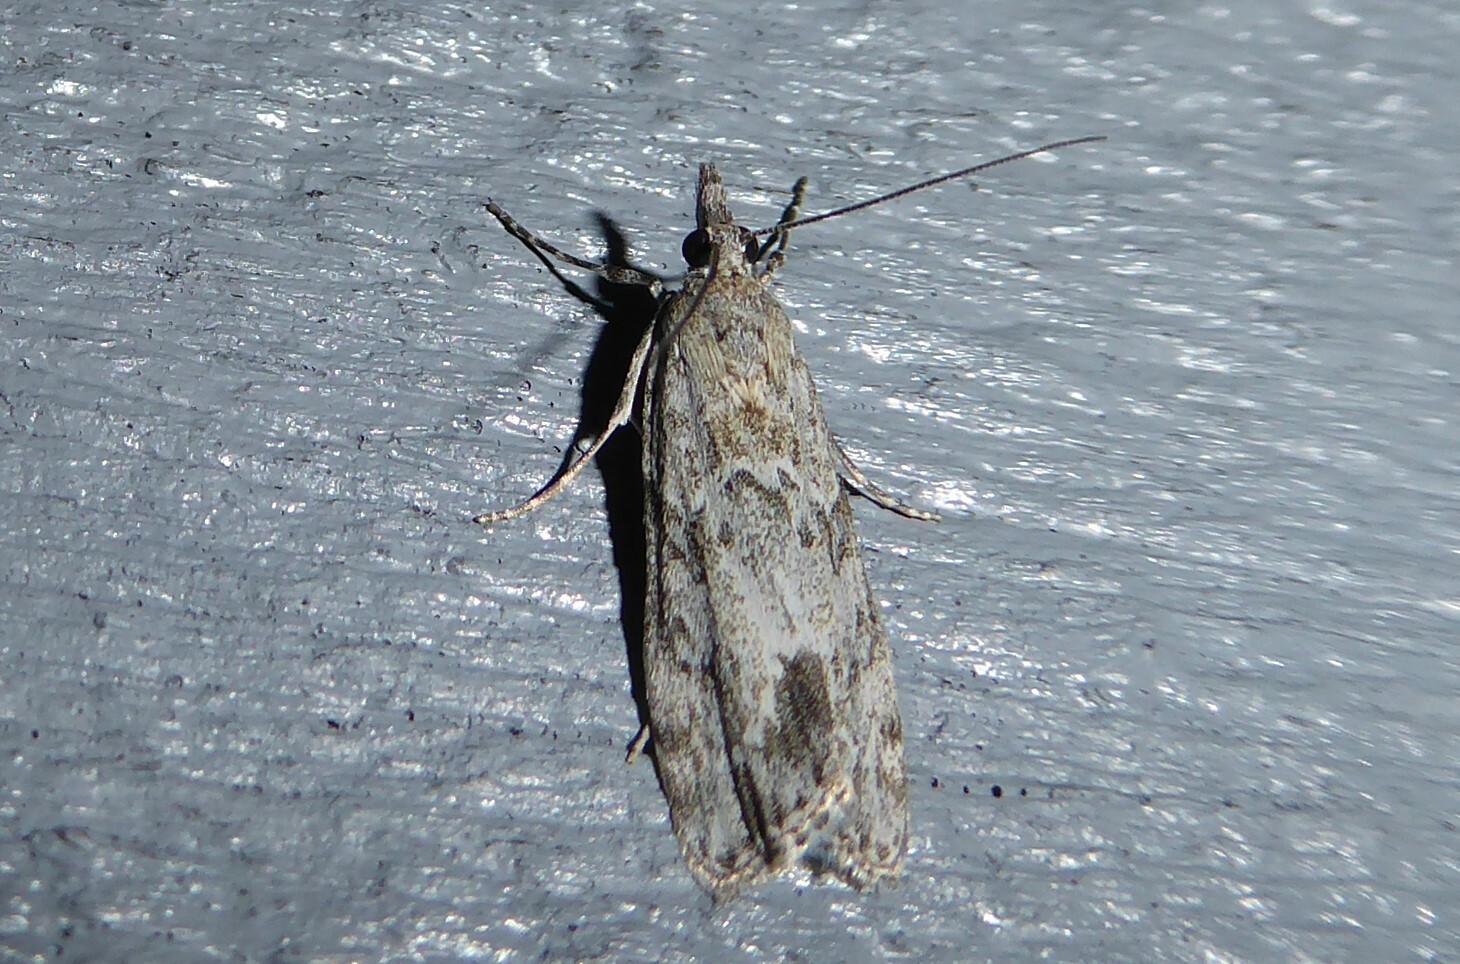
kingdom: Animalia
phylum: Arthropoda
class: Insecta
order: Lepidoptera
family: Crambidae
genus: Eudonia
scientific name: Eudonia rakaiensis
